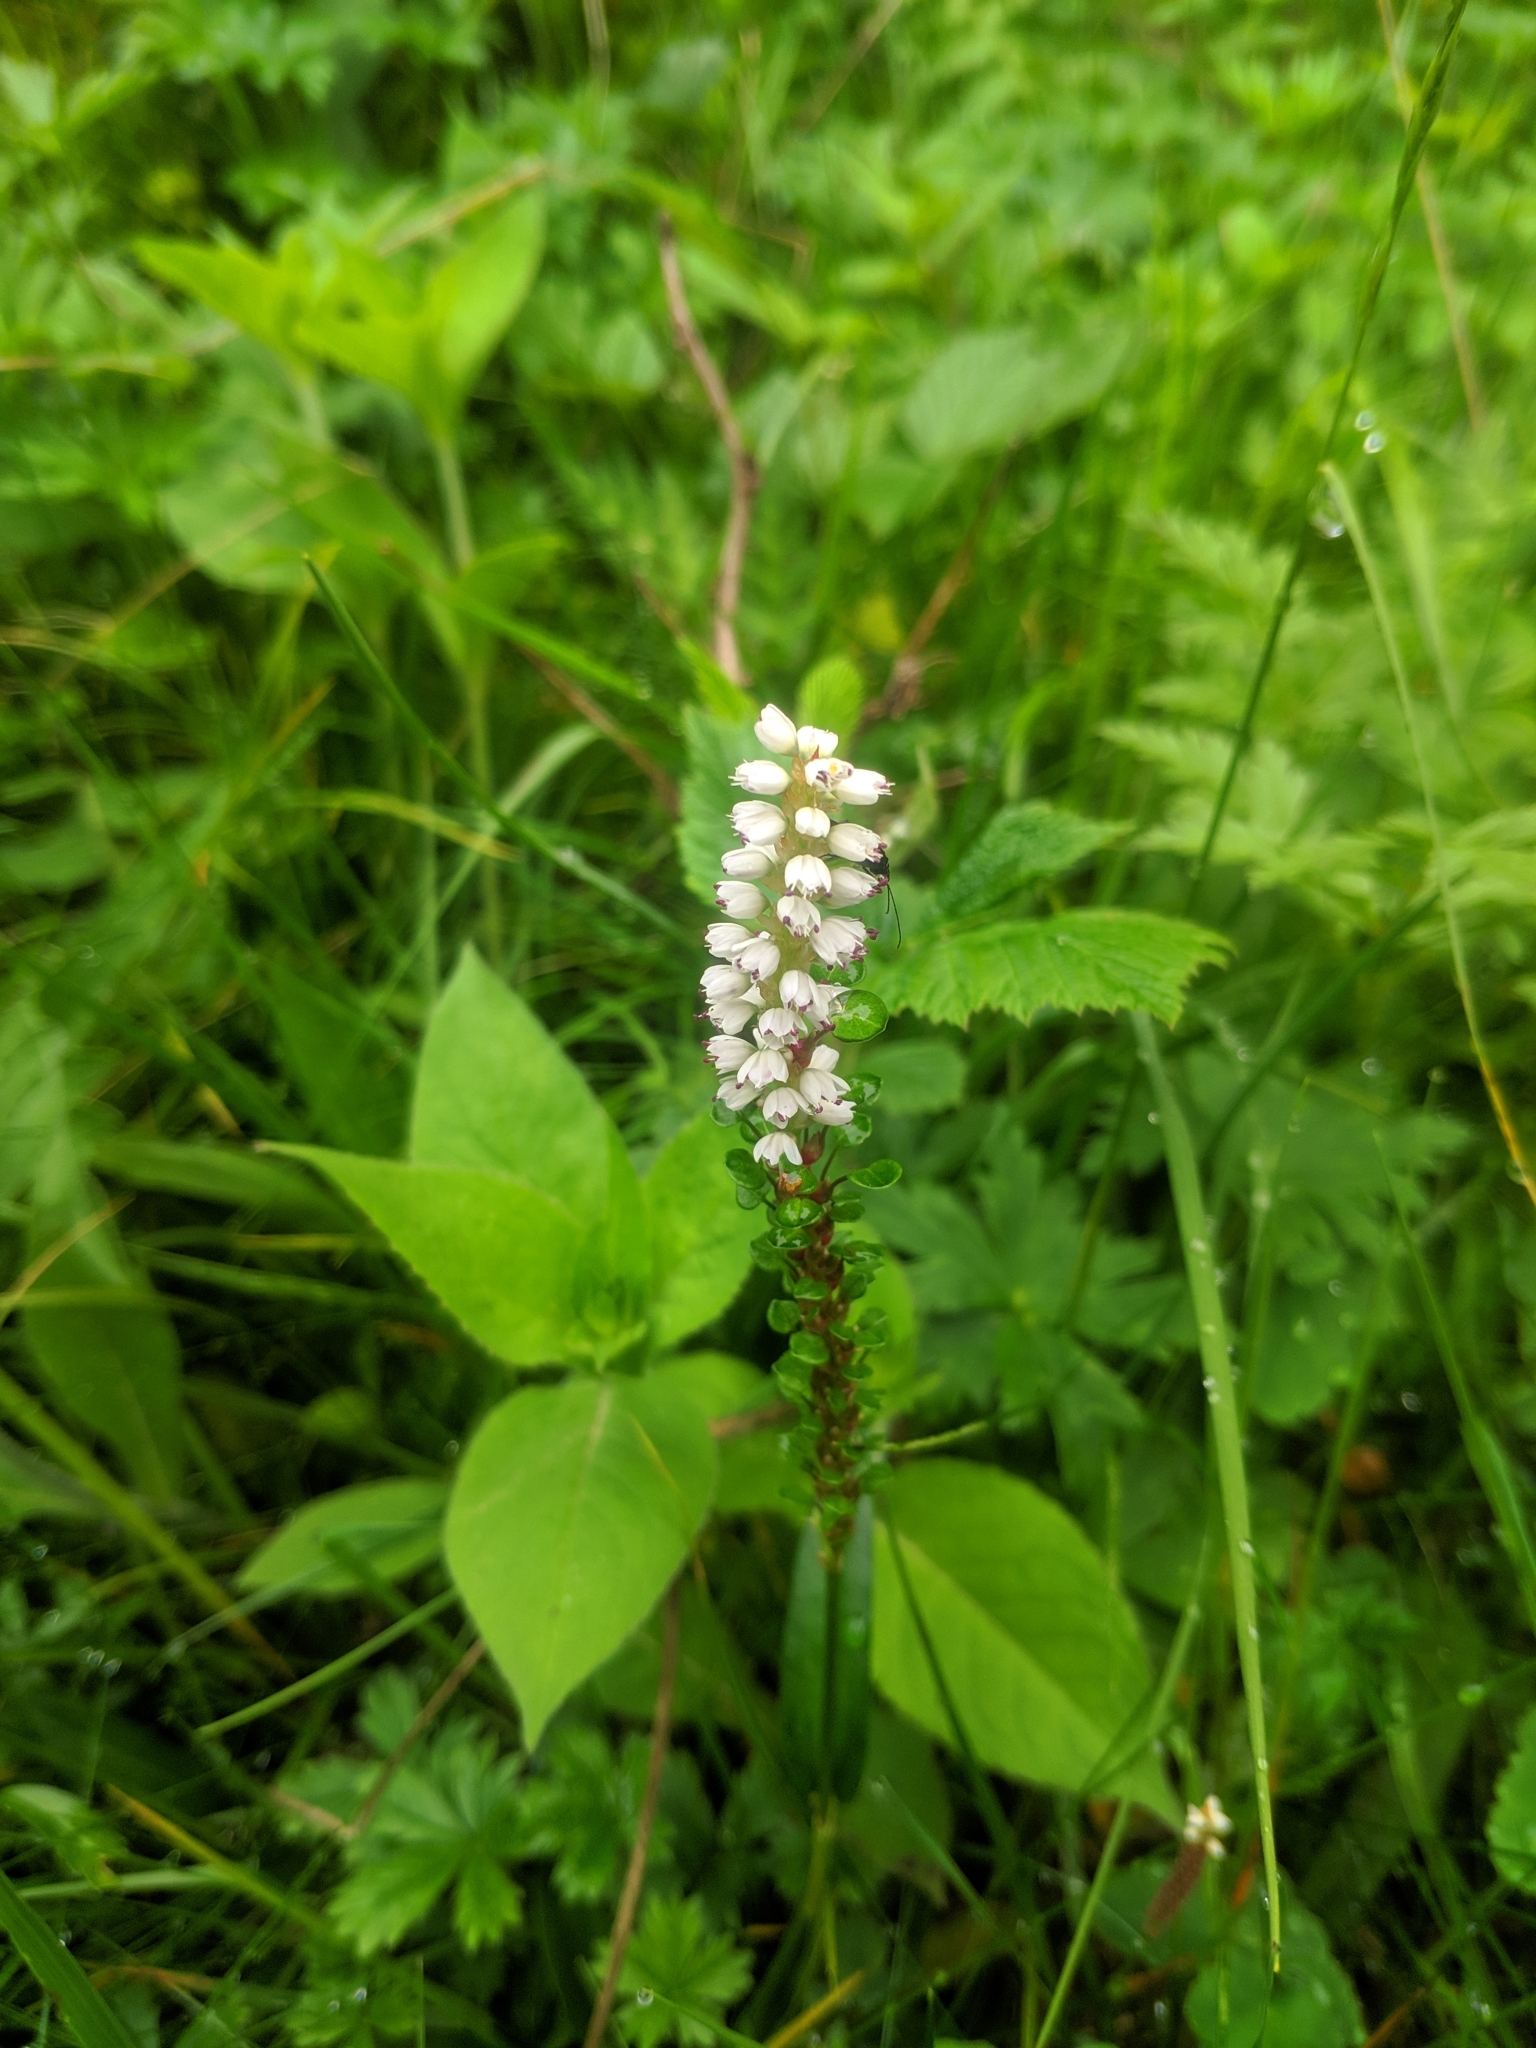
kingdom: Plantae
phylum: Tracheophyta
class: Magnoliopsida
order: Caryophyllales
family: Polygonaceae
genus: Bistorta
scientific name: Bistorta vivipara
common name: Alpine bistort
